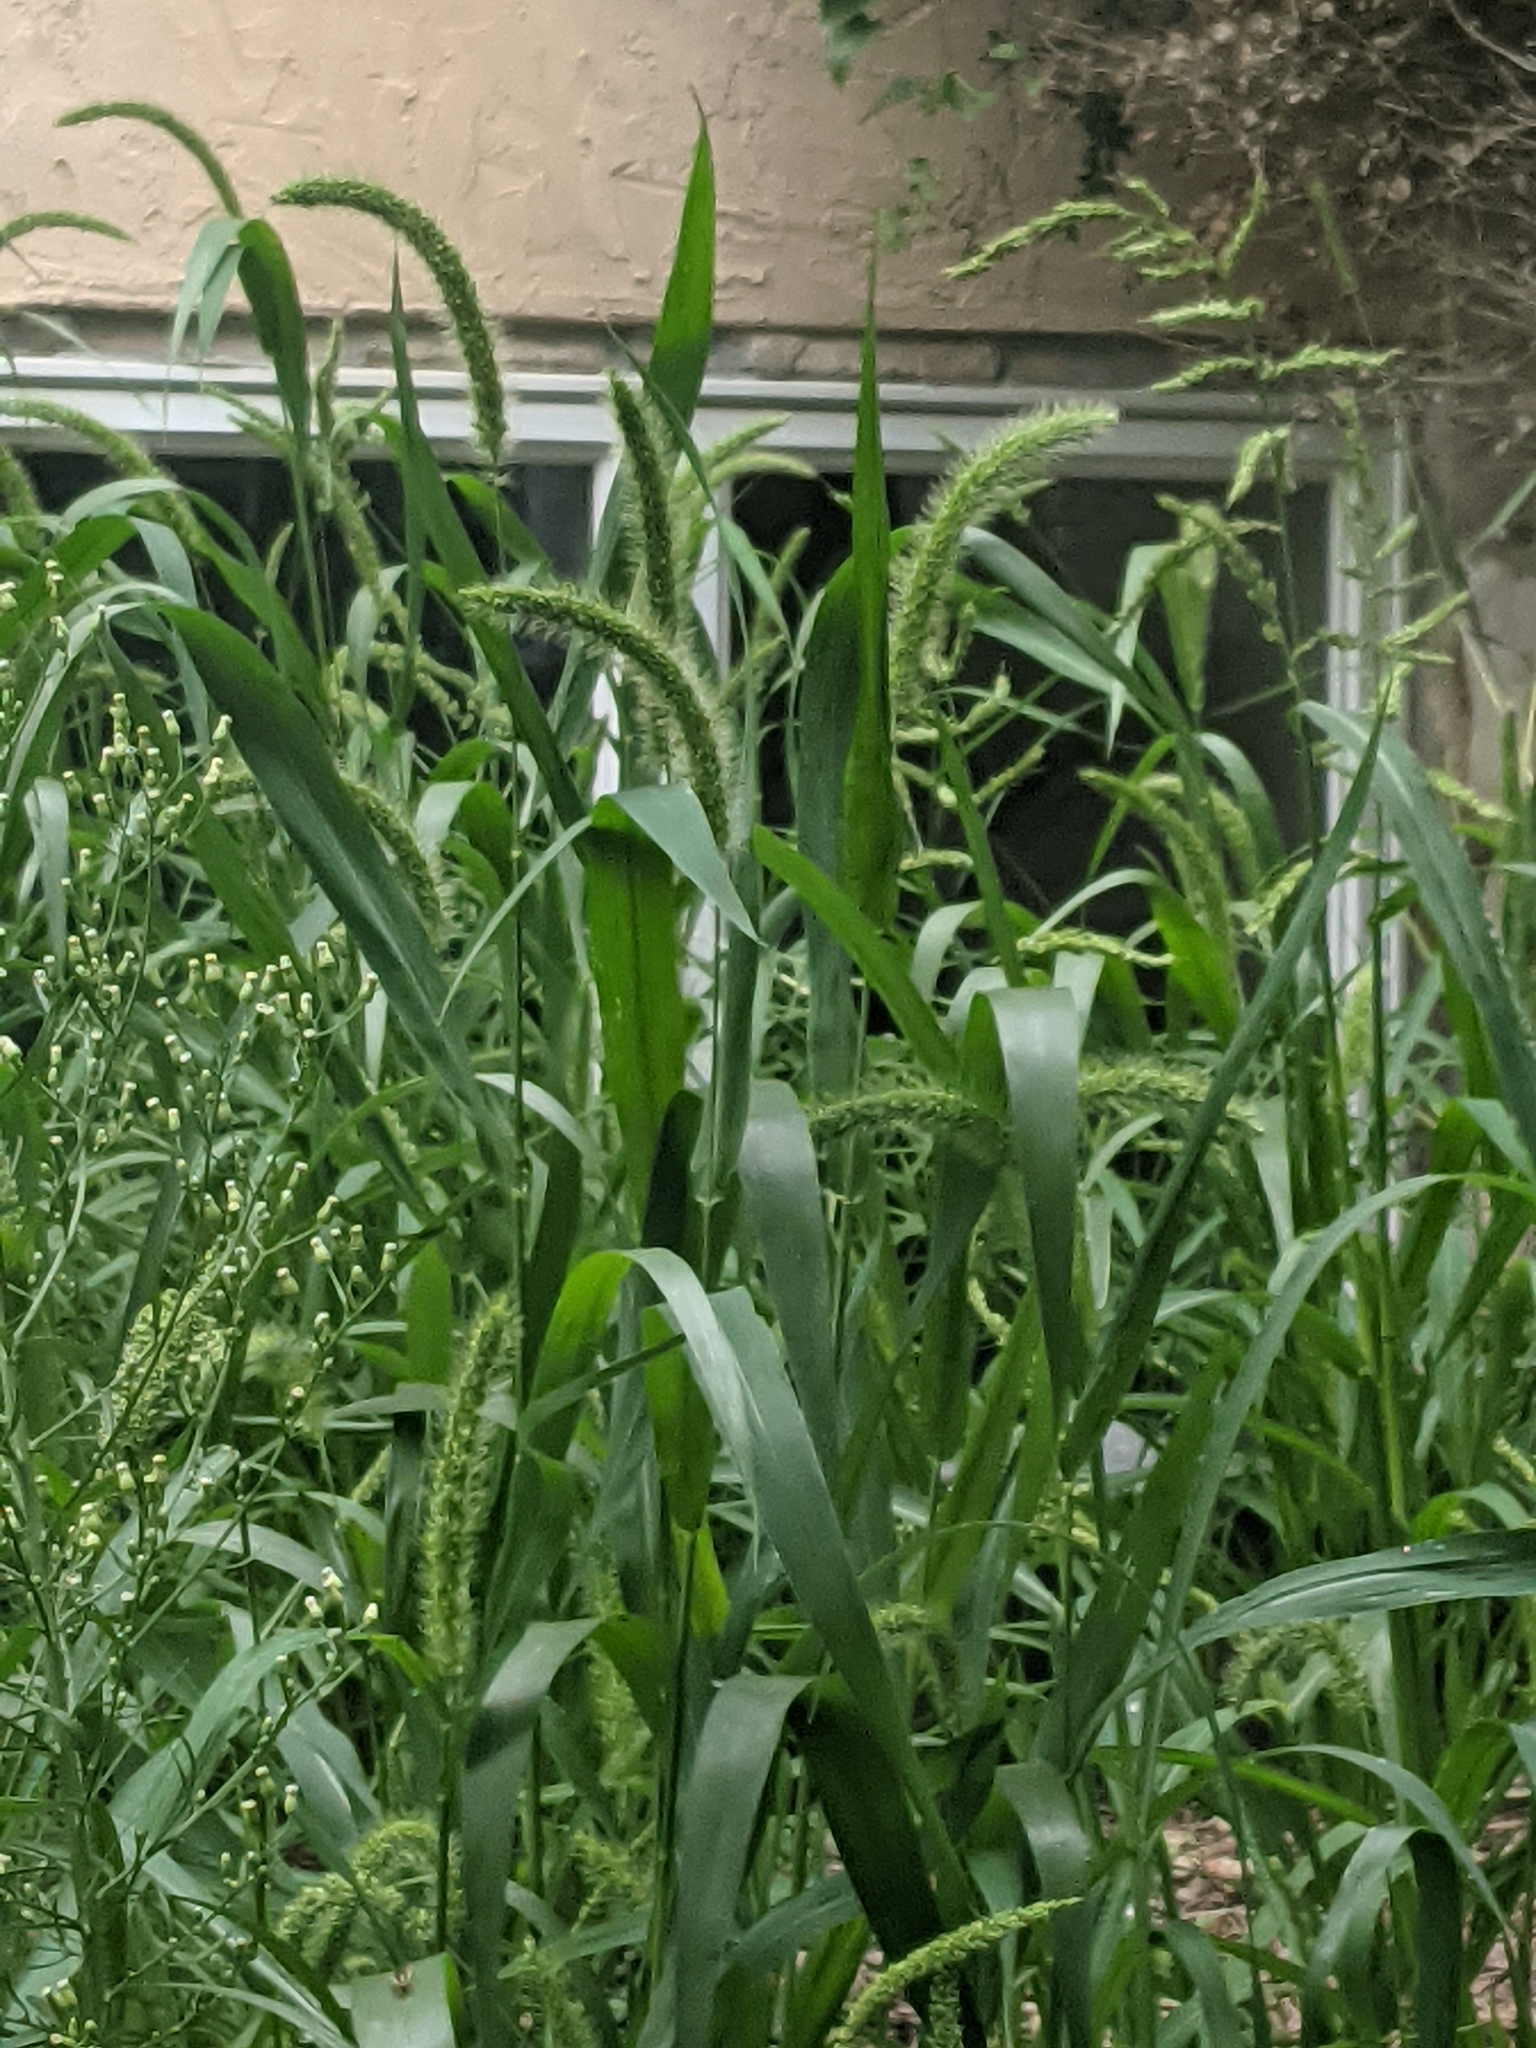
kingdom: Plantae
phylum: Tracheophyta
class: Liliopsida
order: Poales
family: Poaceae
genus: Setaria
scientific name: Setaria faberi
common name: Nodding bristle-grass
